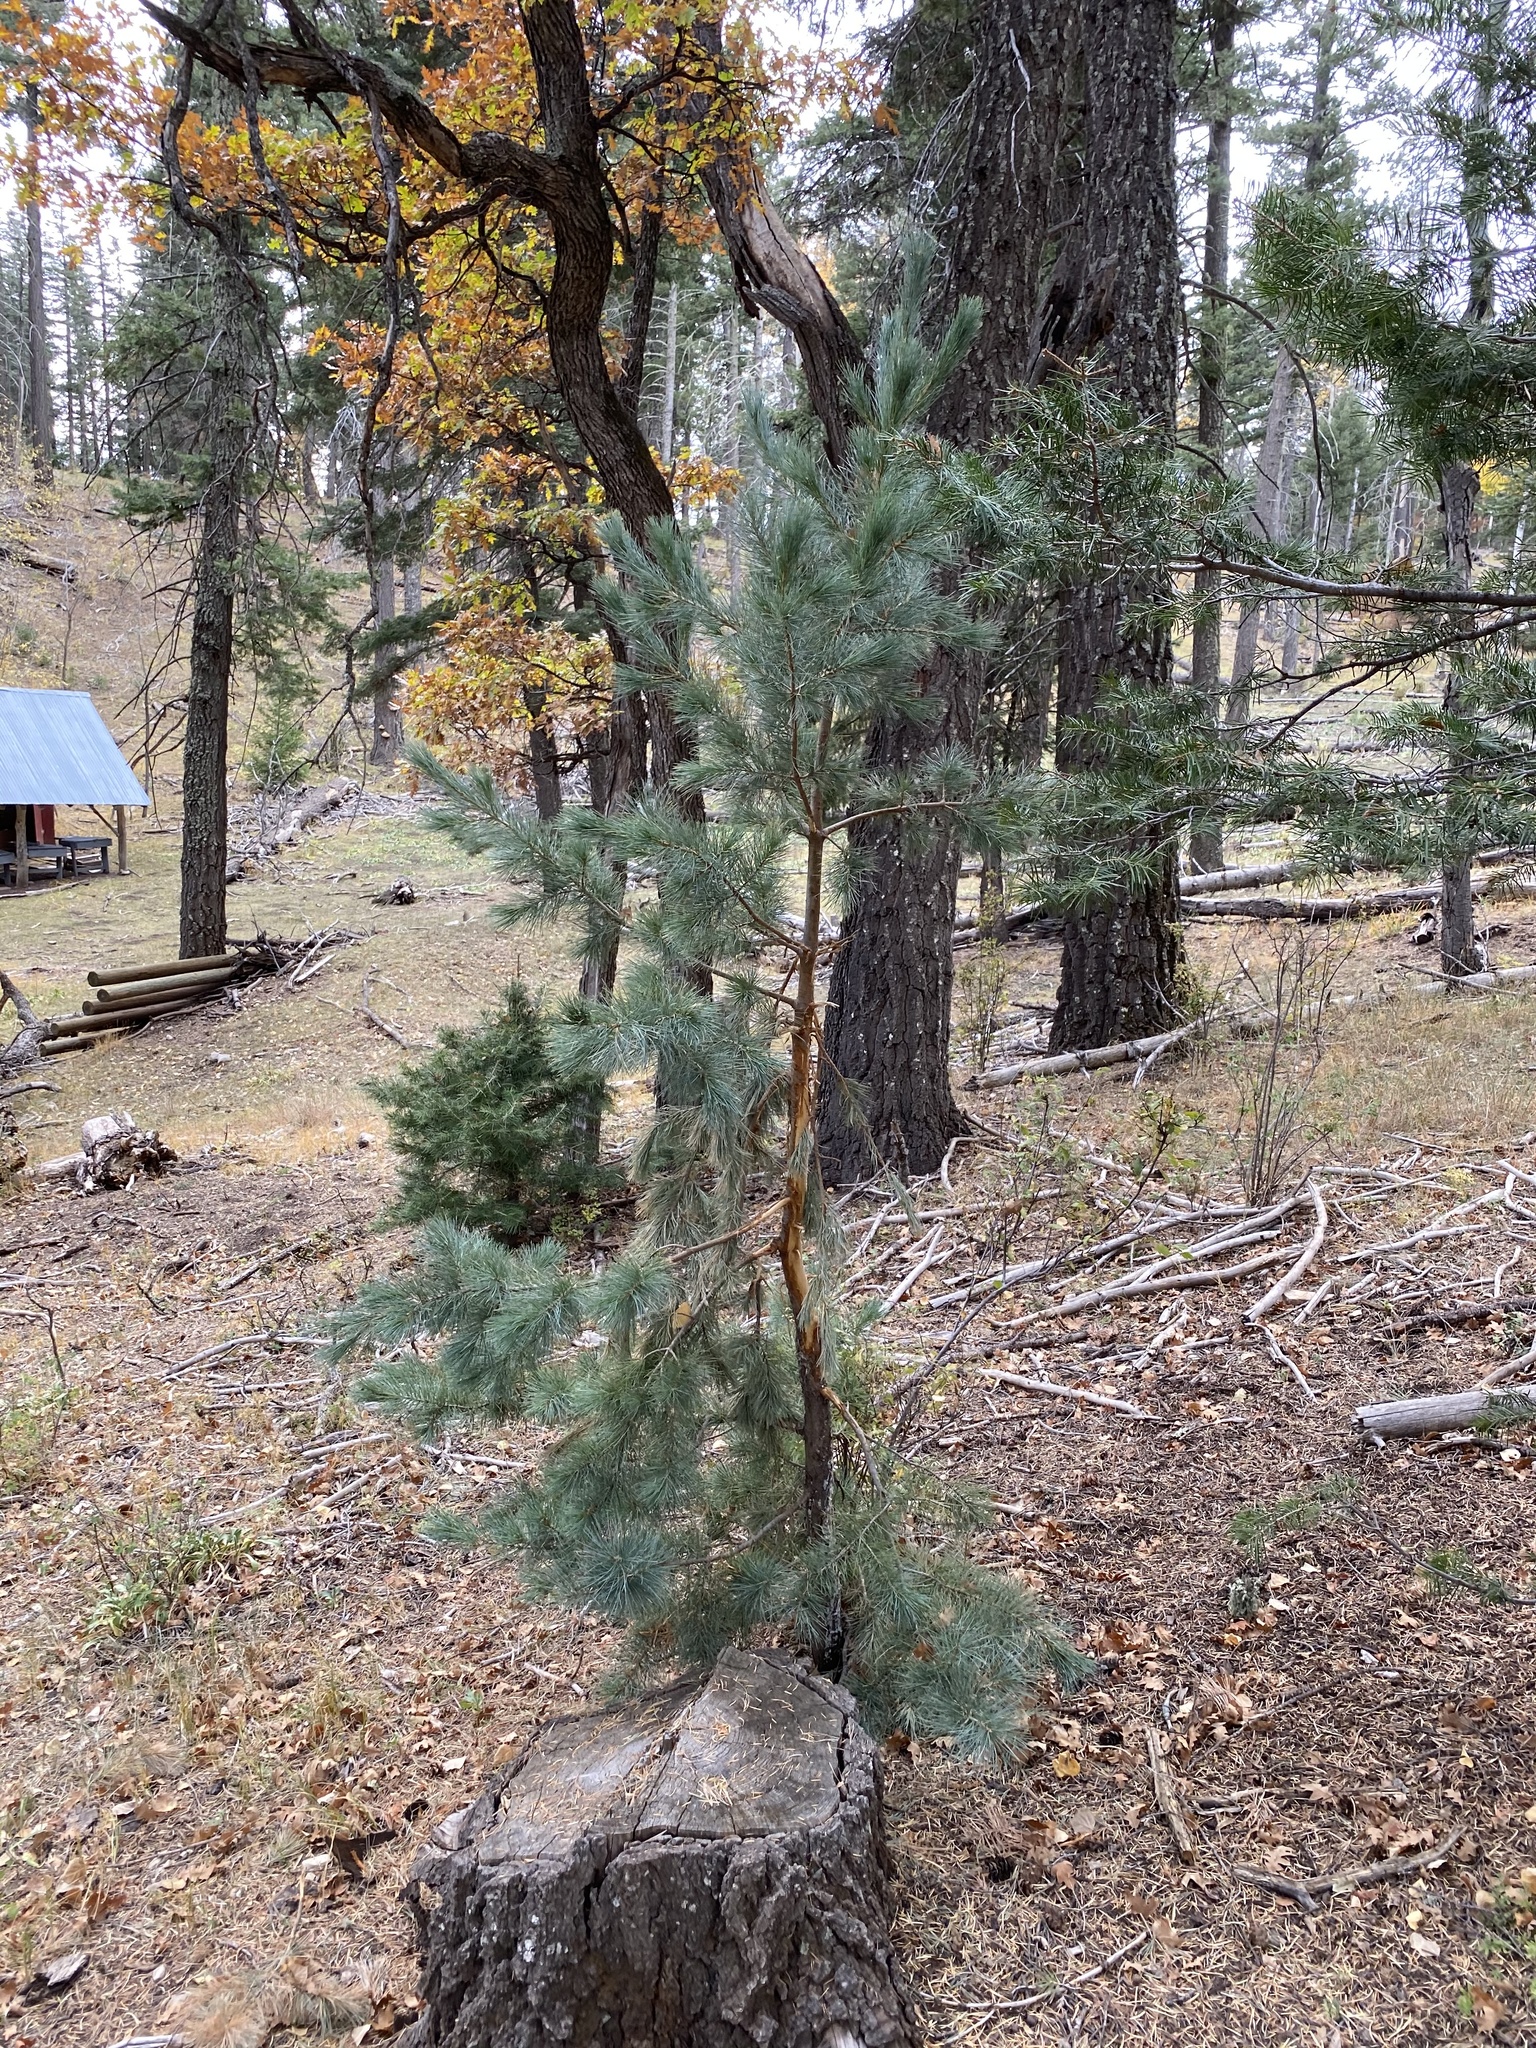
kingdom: Plantae
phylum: Tracheophyta
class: Pinopsida
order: Pinales
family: Pinaceae
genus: Pinus
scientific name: Pinus strobiformis
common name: Southwestern white pine
